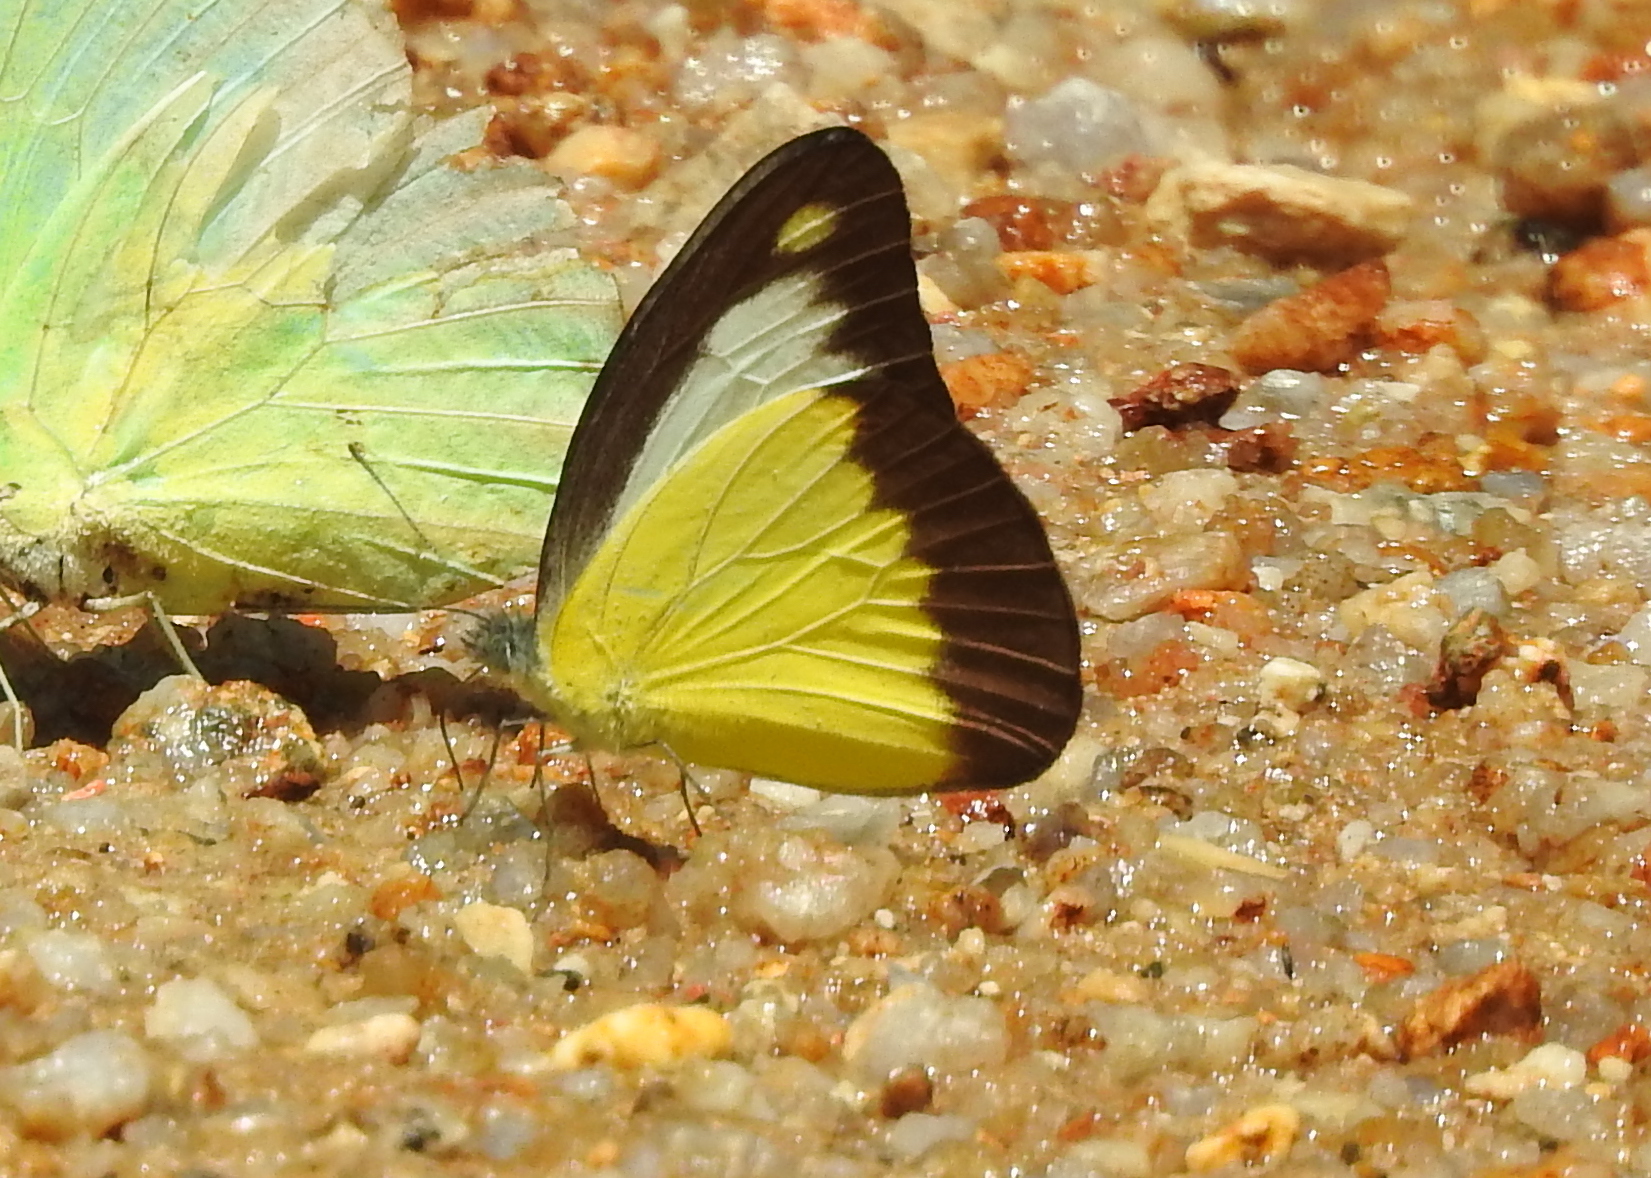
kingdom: Animalia
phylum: Arthropoda
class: Insecta
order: Lepidoptera
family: Pieridae
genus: Appias
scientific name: Appias lyncida
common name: Chocolate albatross
